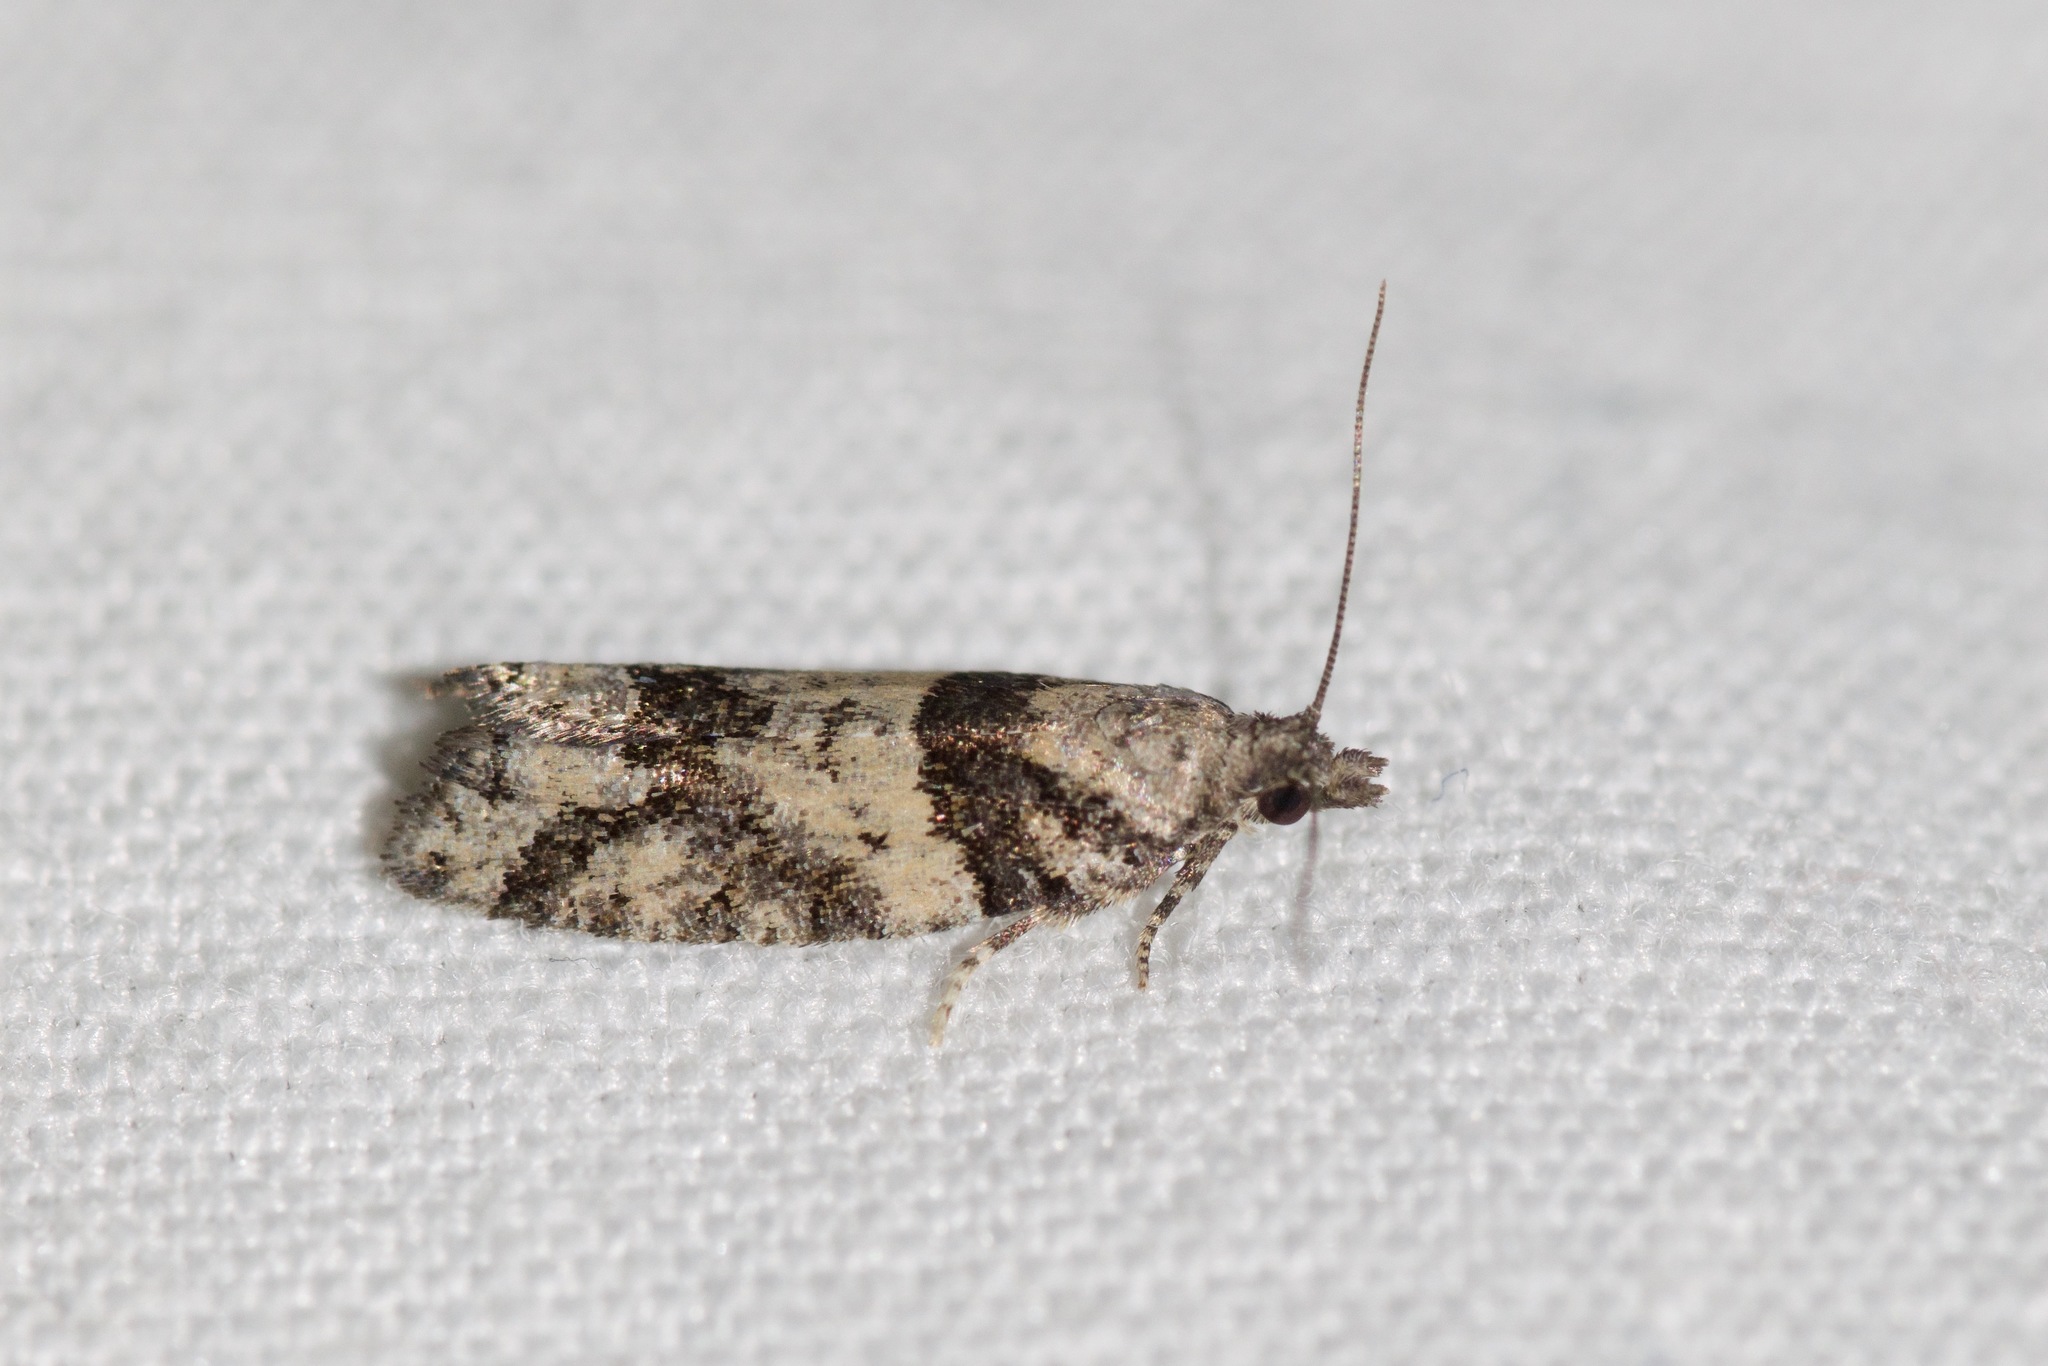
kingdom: Animalia
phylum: Arthropoda
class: Insecta
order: Lepidoptera
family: Tortricidae
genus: Epinotia
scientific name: Epinotia radicana
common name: Red-striped needleworm moth
